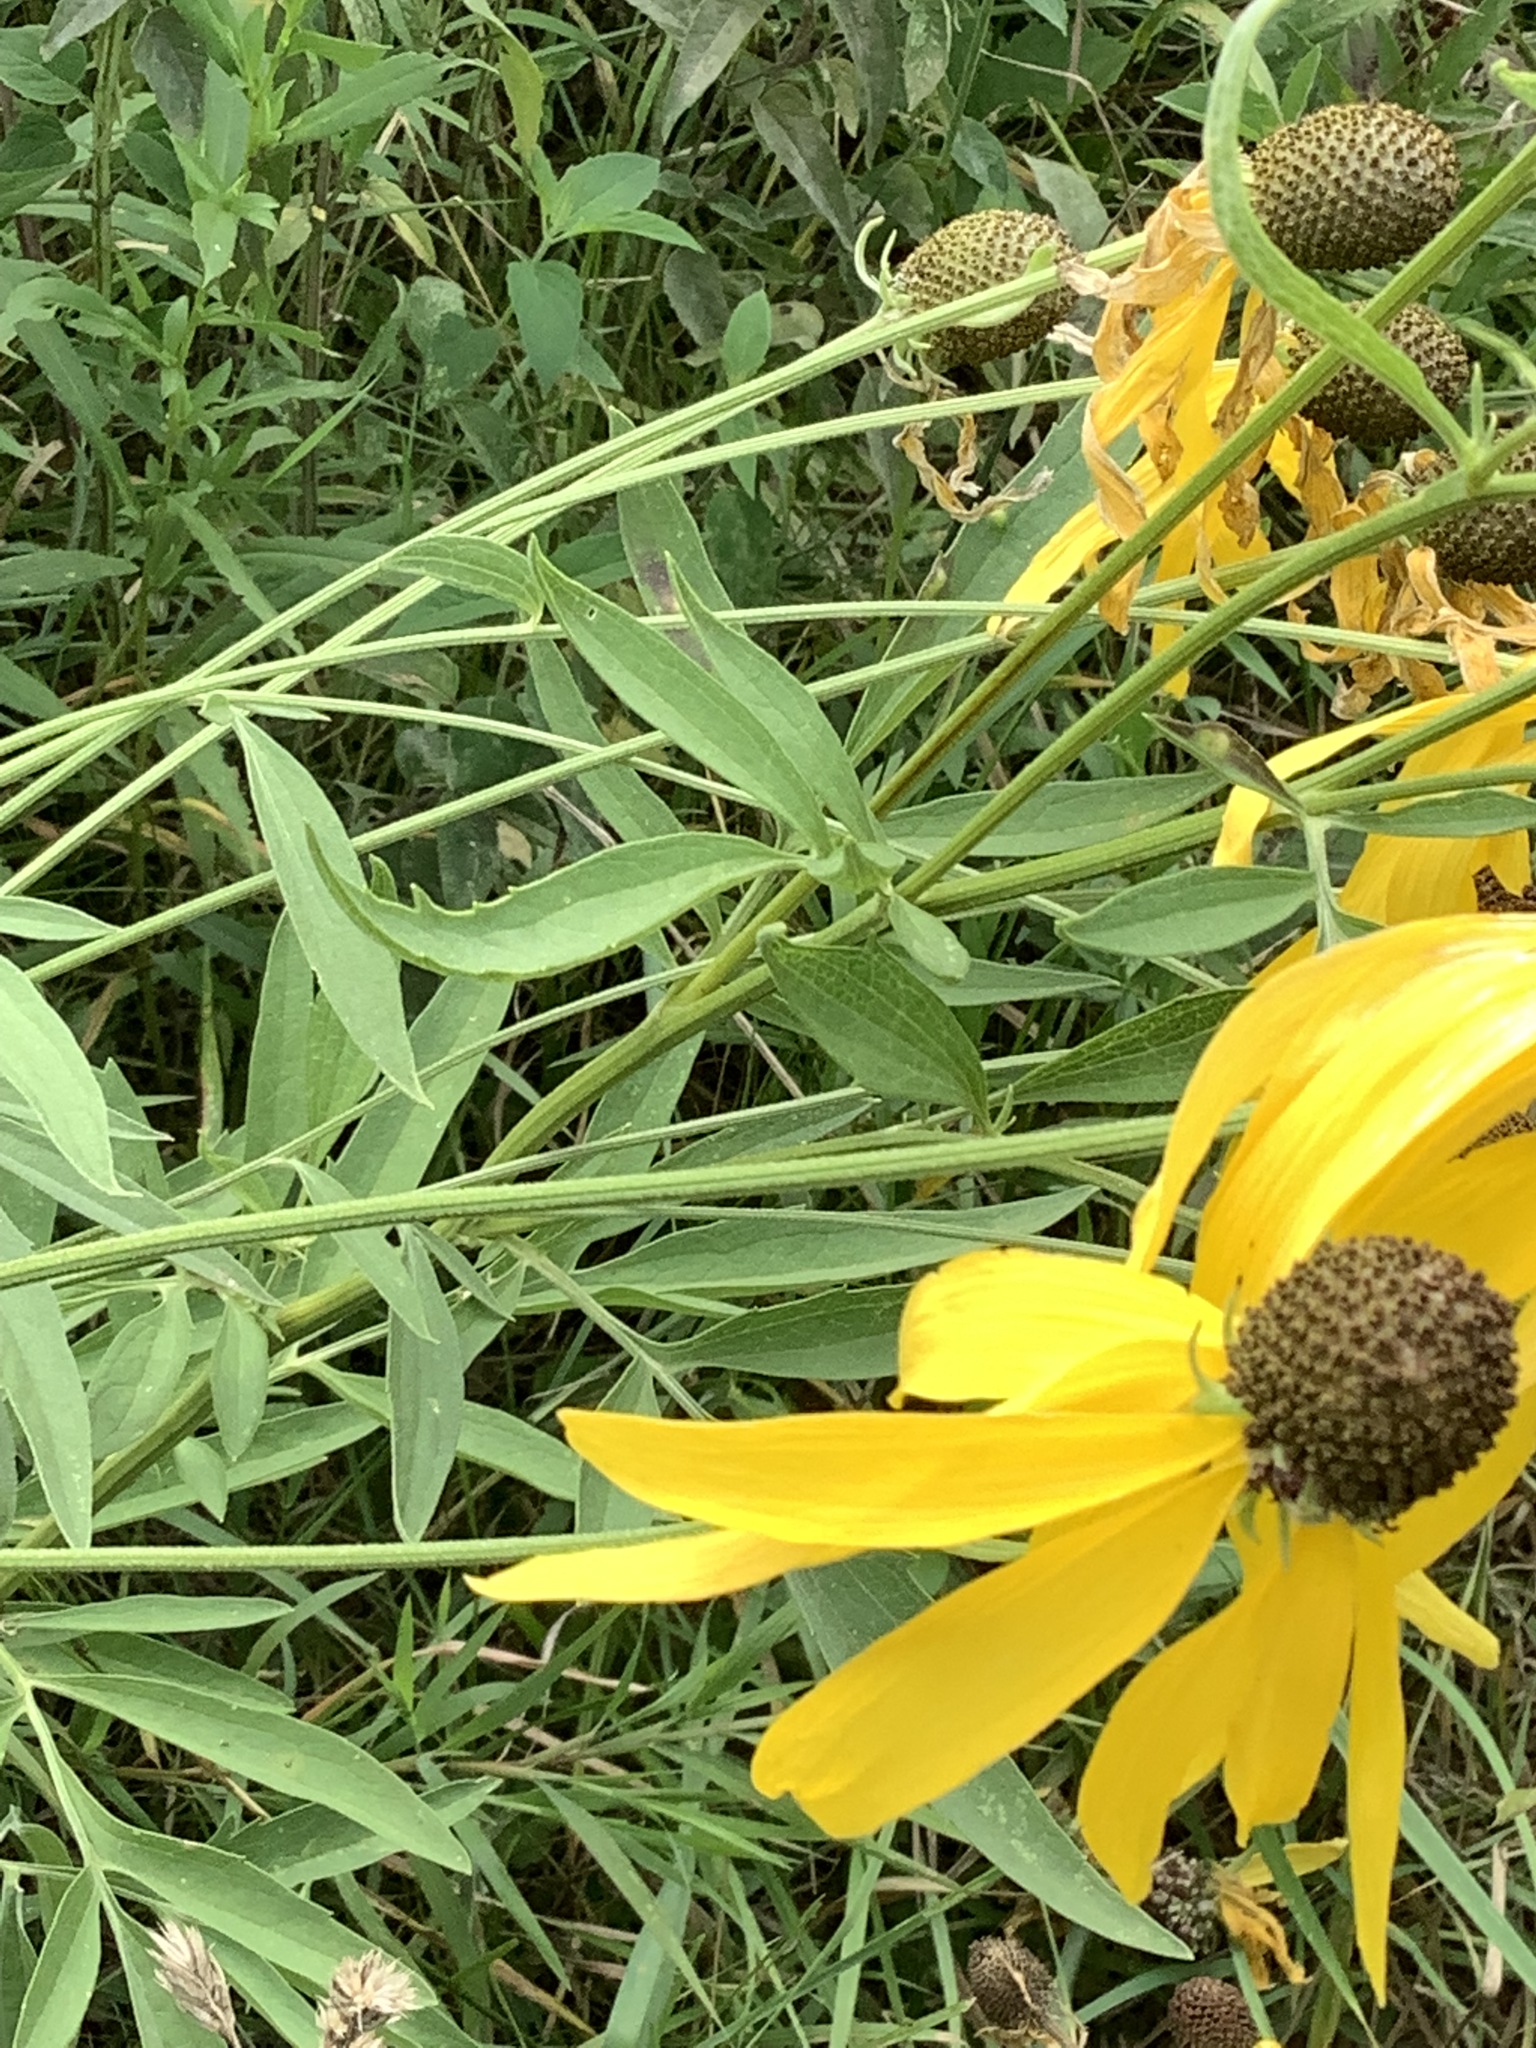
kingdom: Plantae
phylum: Tracheophyta
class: Magnoliopsida
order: Asterales
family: Asteraceae
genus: Ratibida
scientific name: Ratibida pinnata
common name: Drooping prairie-coneflower
